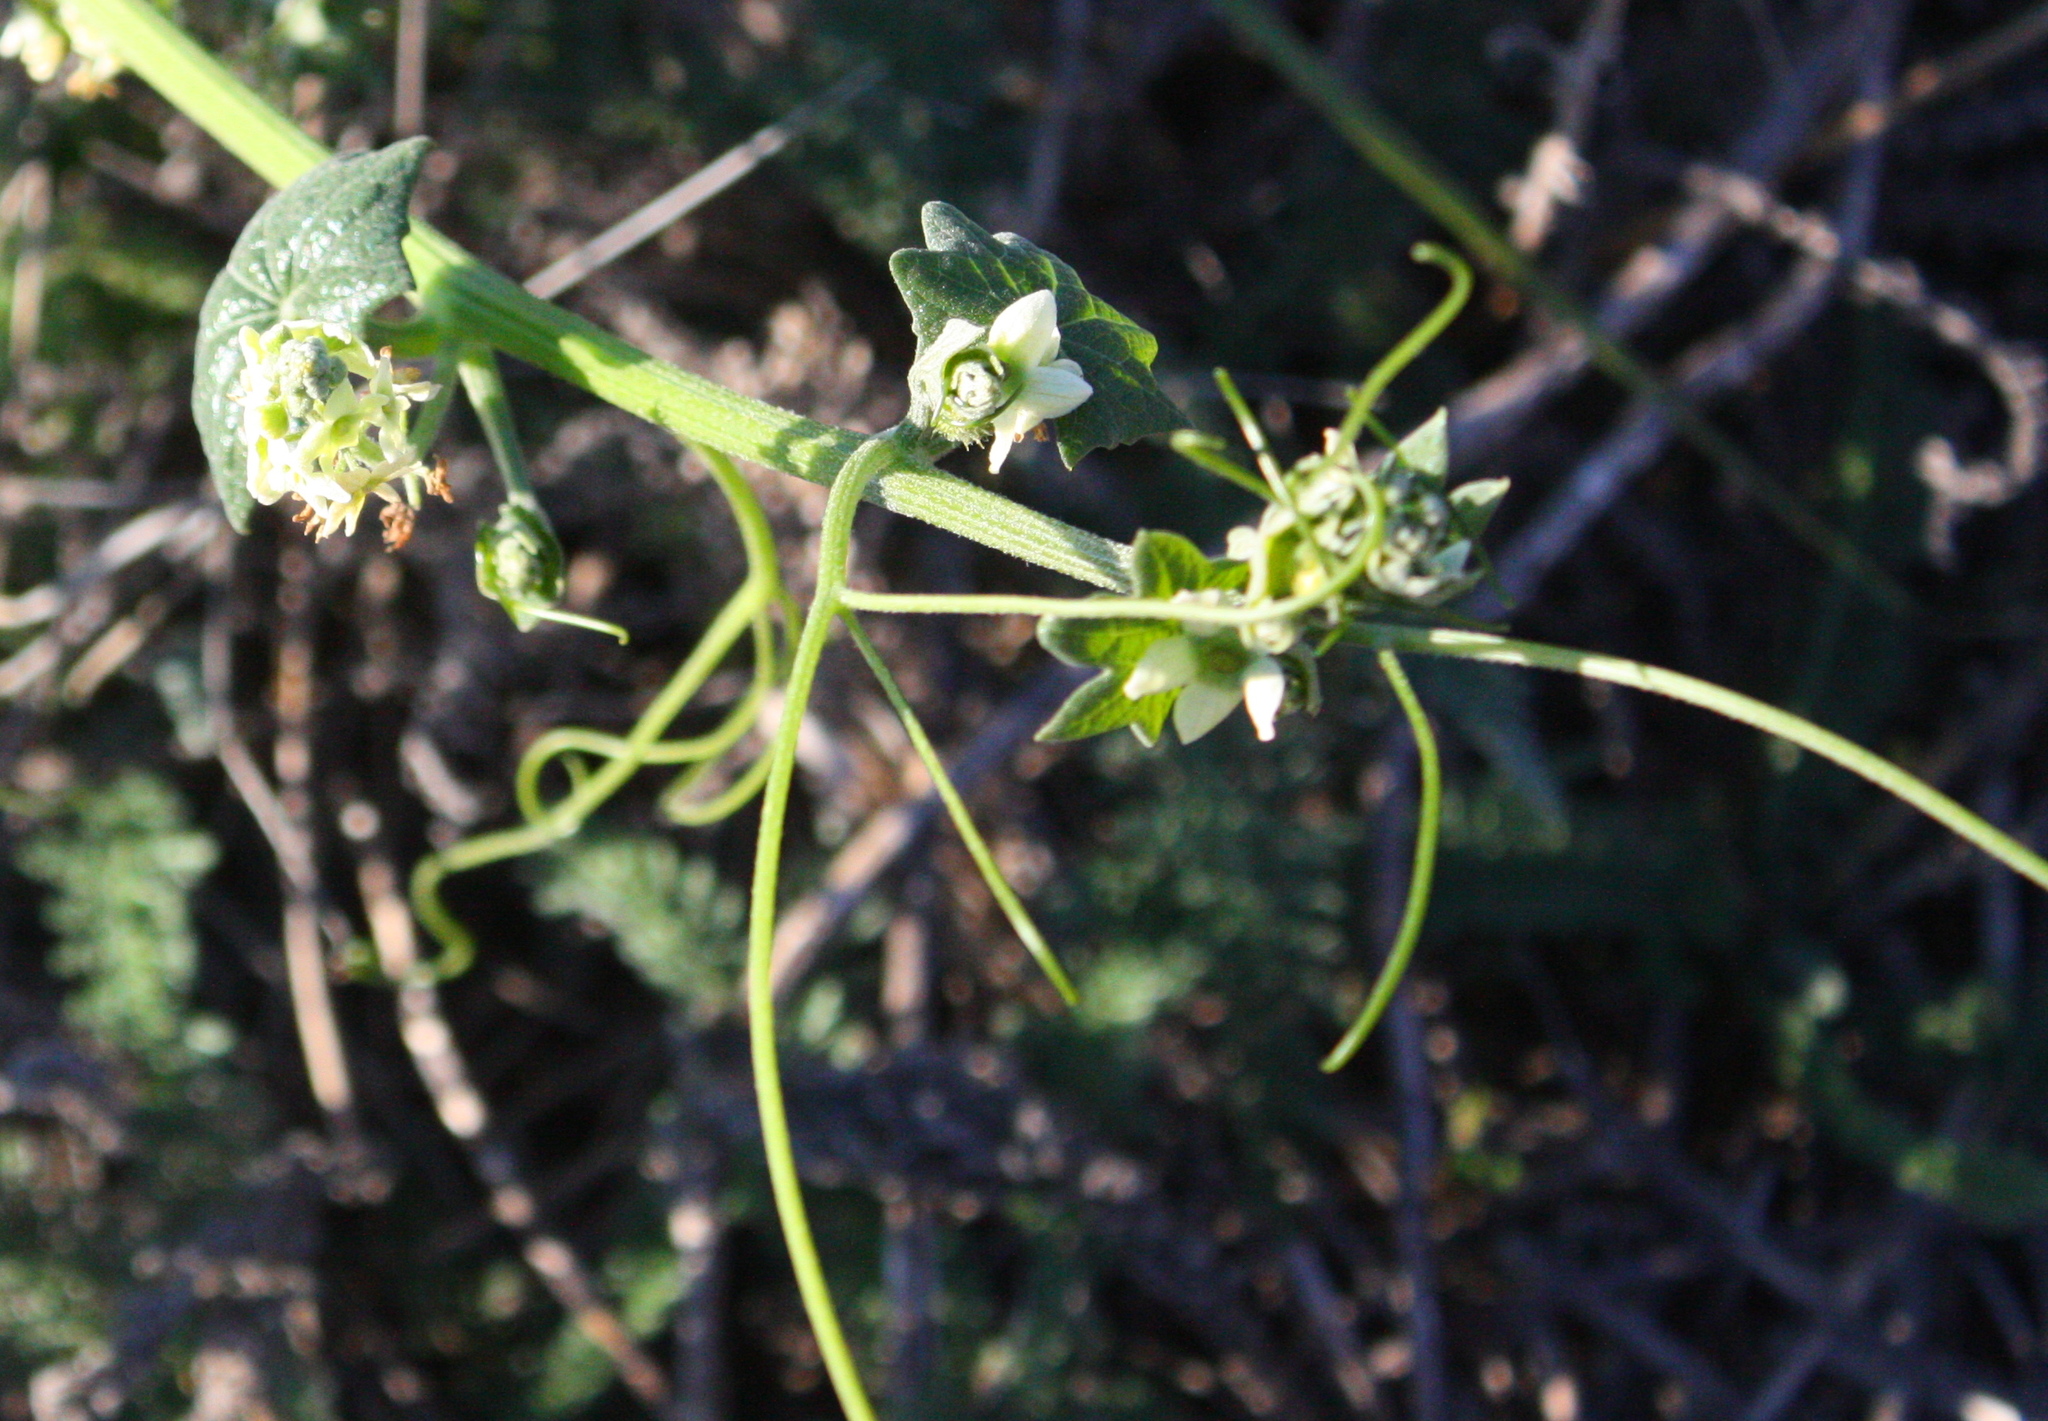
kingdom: Plantae
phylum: Tracheophyta
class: Magnoliopsida
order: Cucurbitales
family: Cucurbitaceae
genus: Marah
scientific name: Marah fabacea
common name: California manroot
